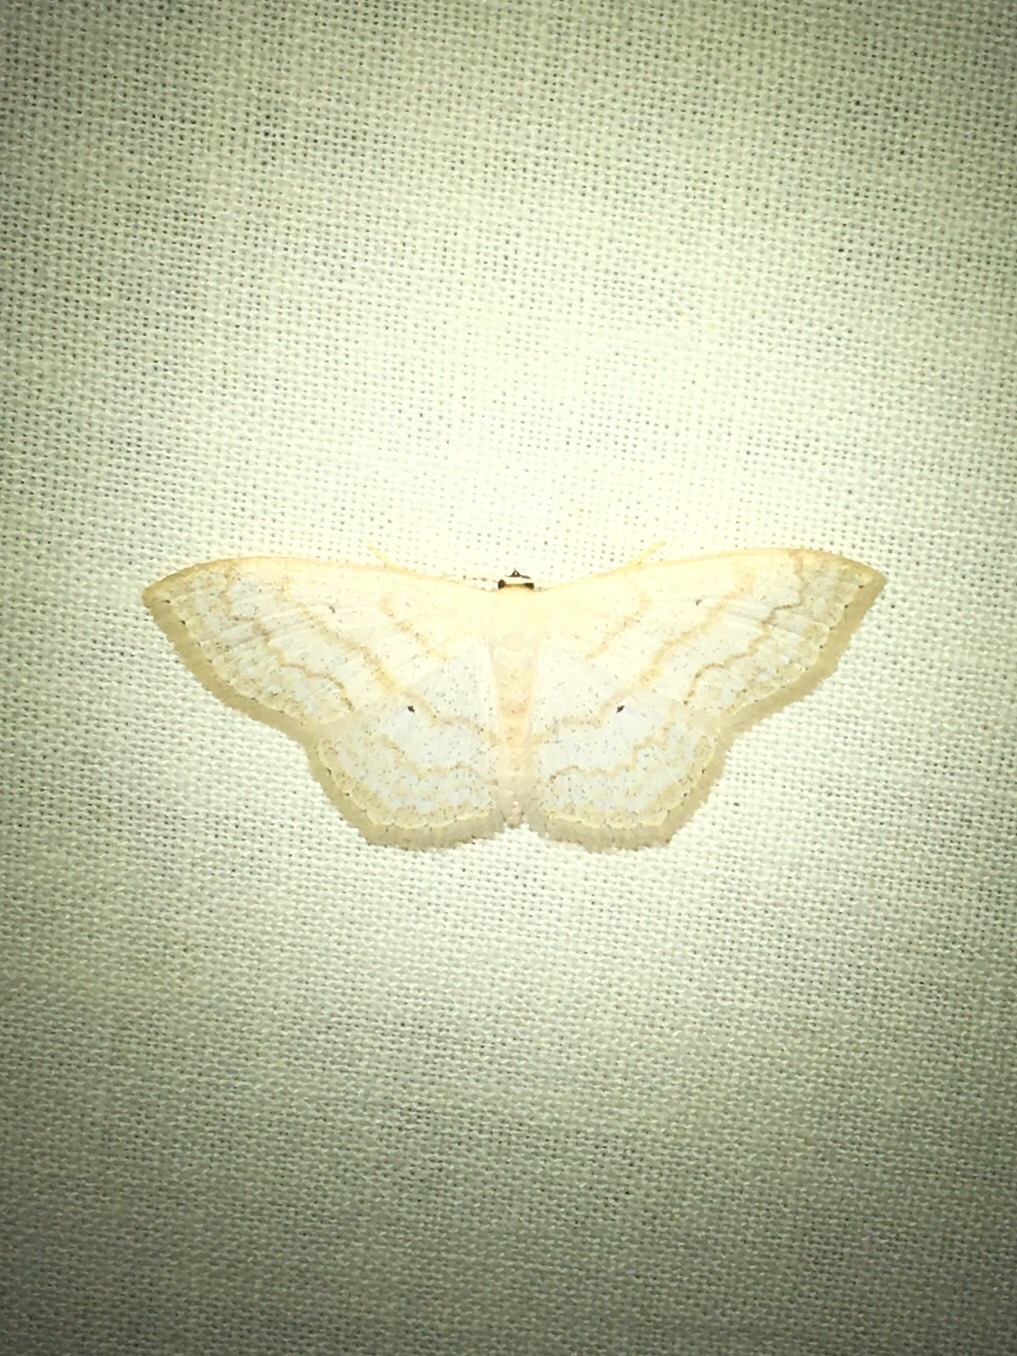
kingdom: Animalia
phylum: Arthropoda
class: Insecta
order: Lepidoptera
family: Geometridae
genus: Scopula
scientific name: Scopula limboundata
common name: Large lace border
